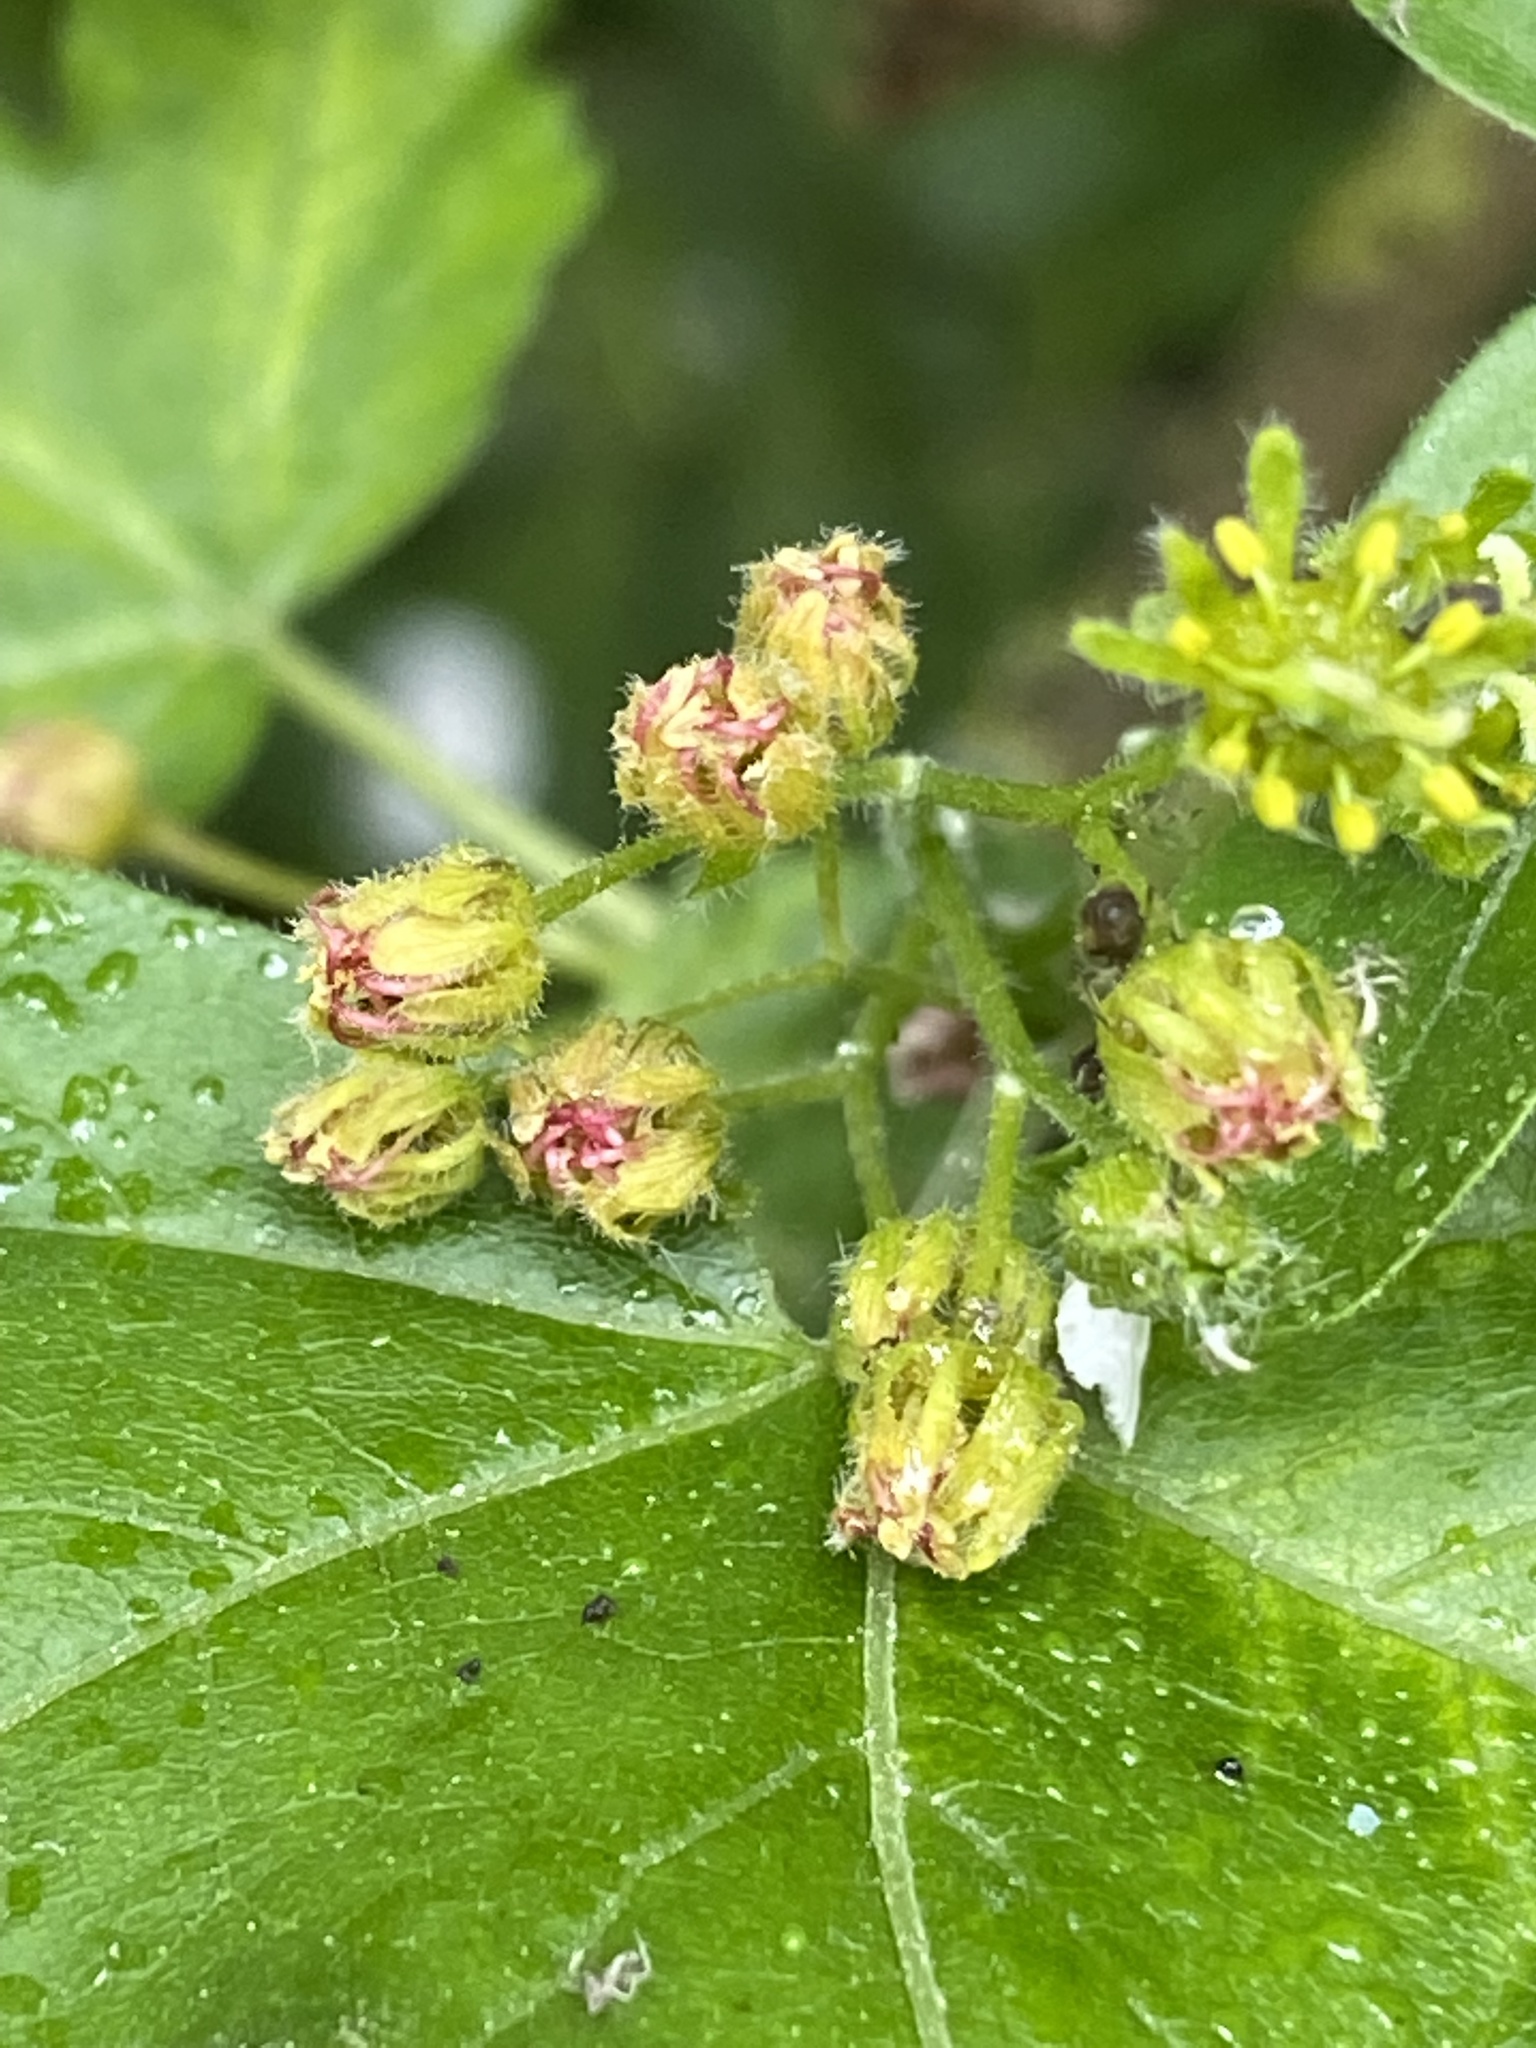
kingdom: Plantae
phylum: Tracheophyta
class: Magnoliopsida
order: Sapindales
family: Sapindaceae
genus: Acer
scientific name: Acer campestre
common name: Field maple
